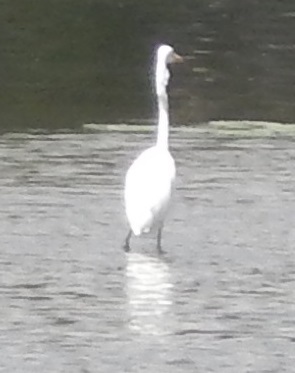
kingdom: Animalia
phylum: Chordata
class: Aves
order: Pelecaniformes
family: Ardeidae
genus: Ardea
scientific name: Ardea alba
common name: Great egret
